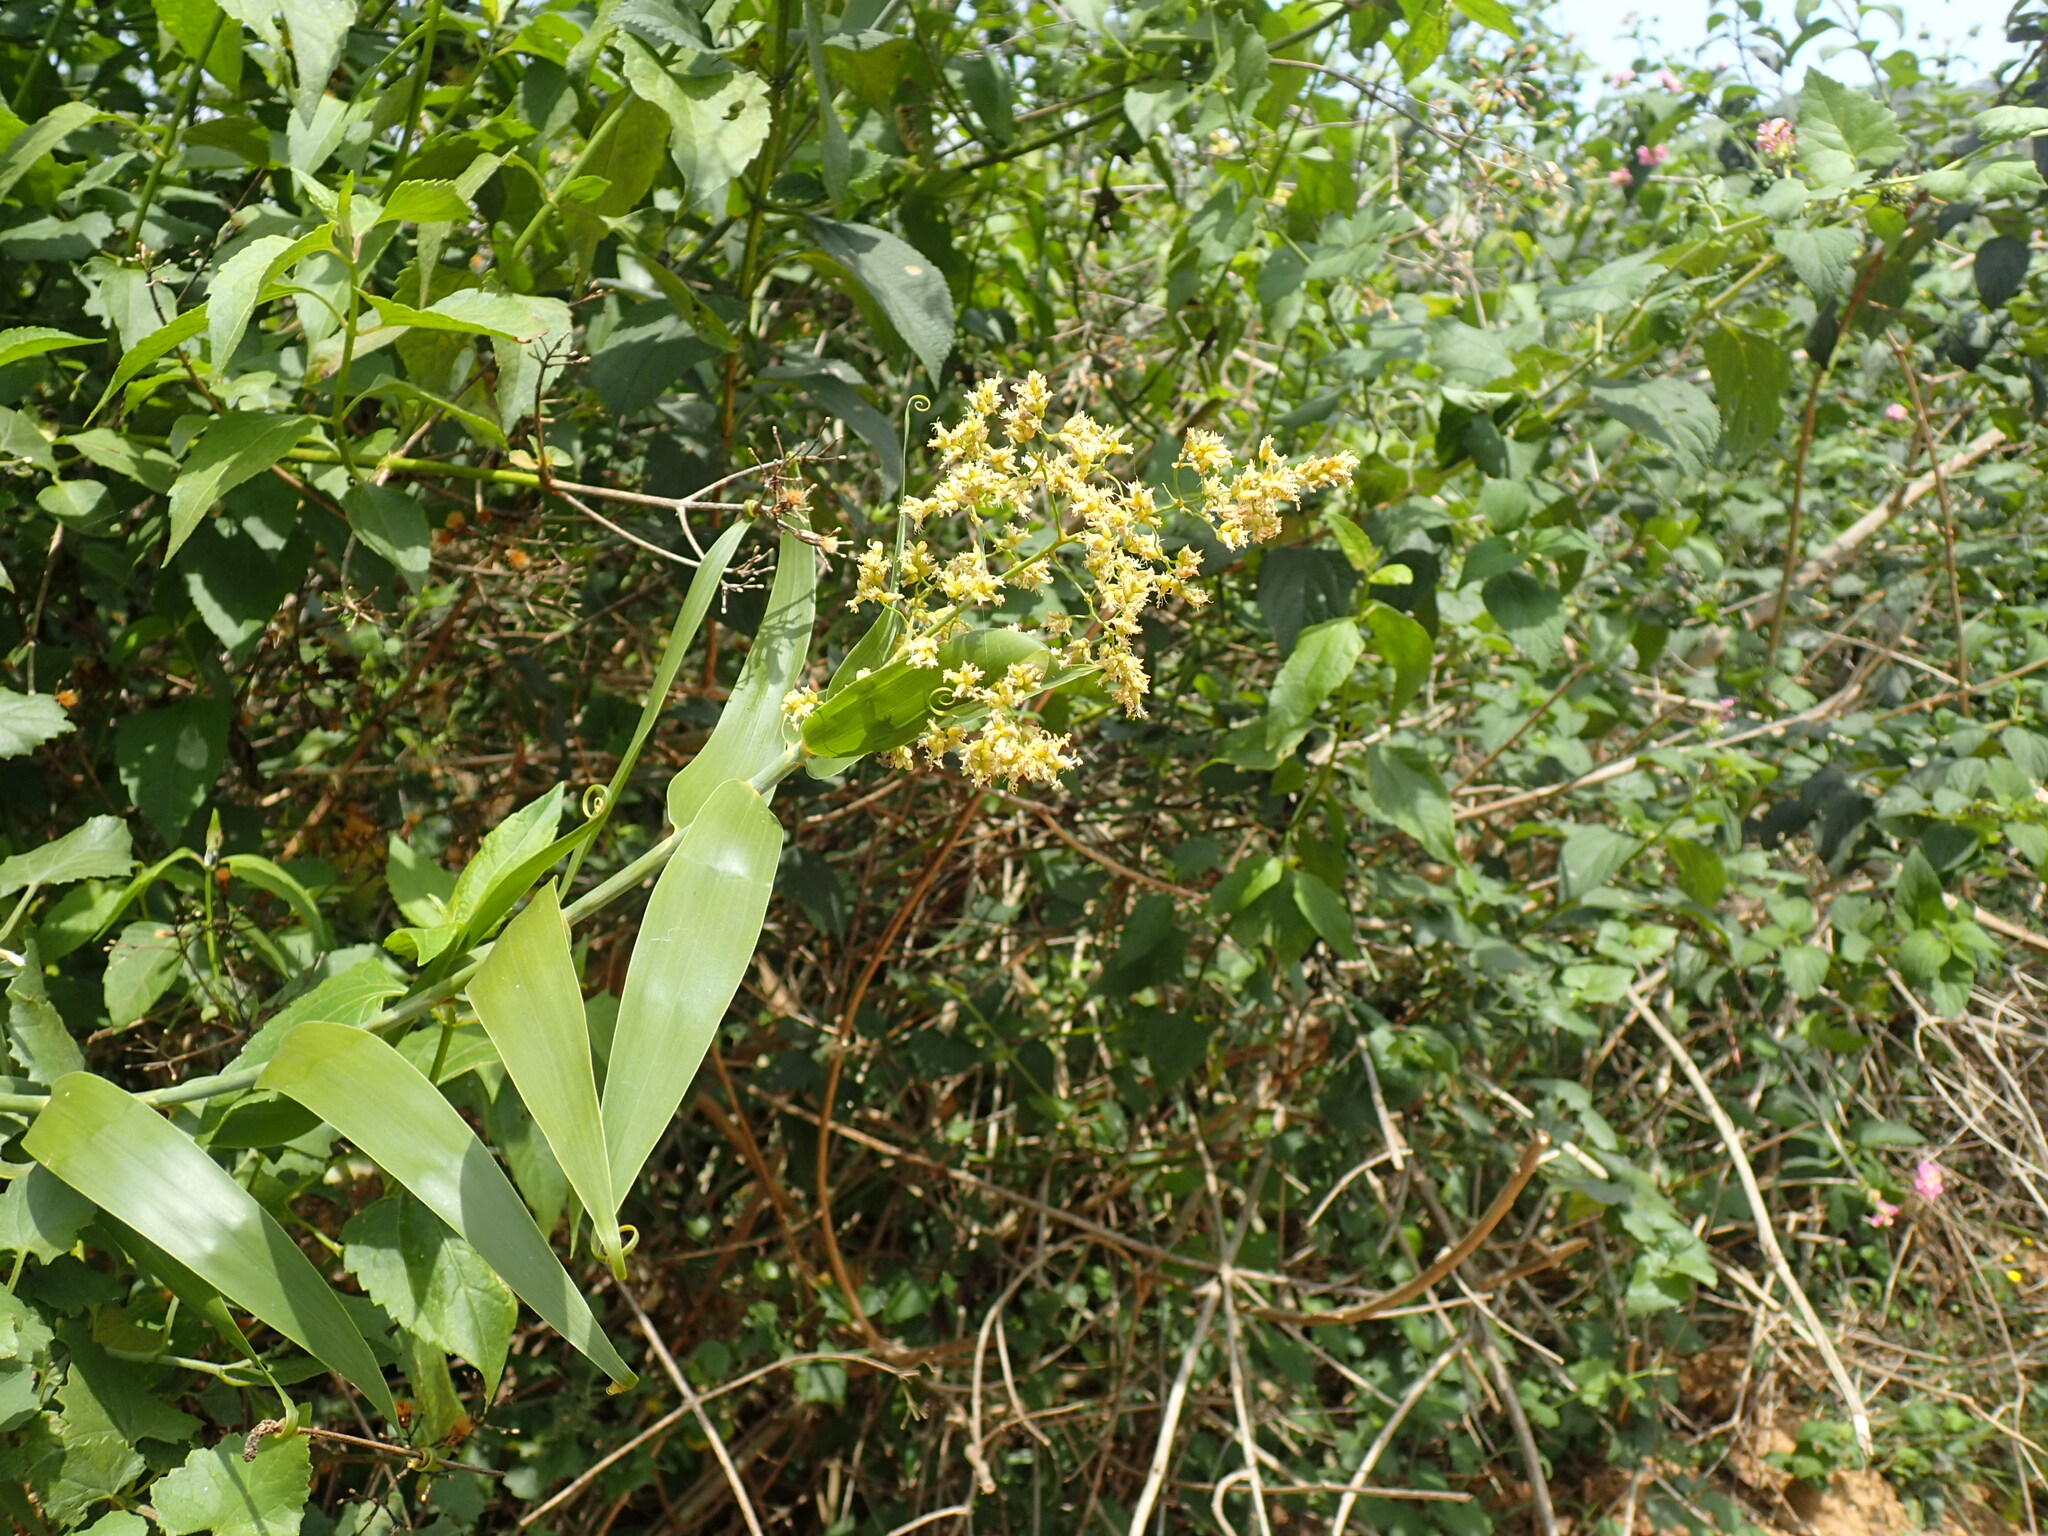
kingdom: Plantae
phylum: Tracheophyta
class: Liliopsida
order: Poales
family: Flagellariaceae
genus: Flagellaria
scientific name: Flagellaria guineensis
